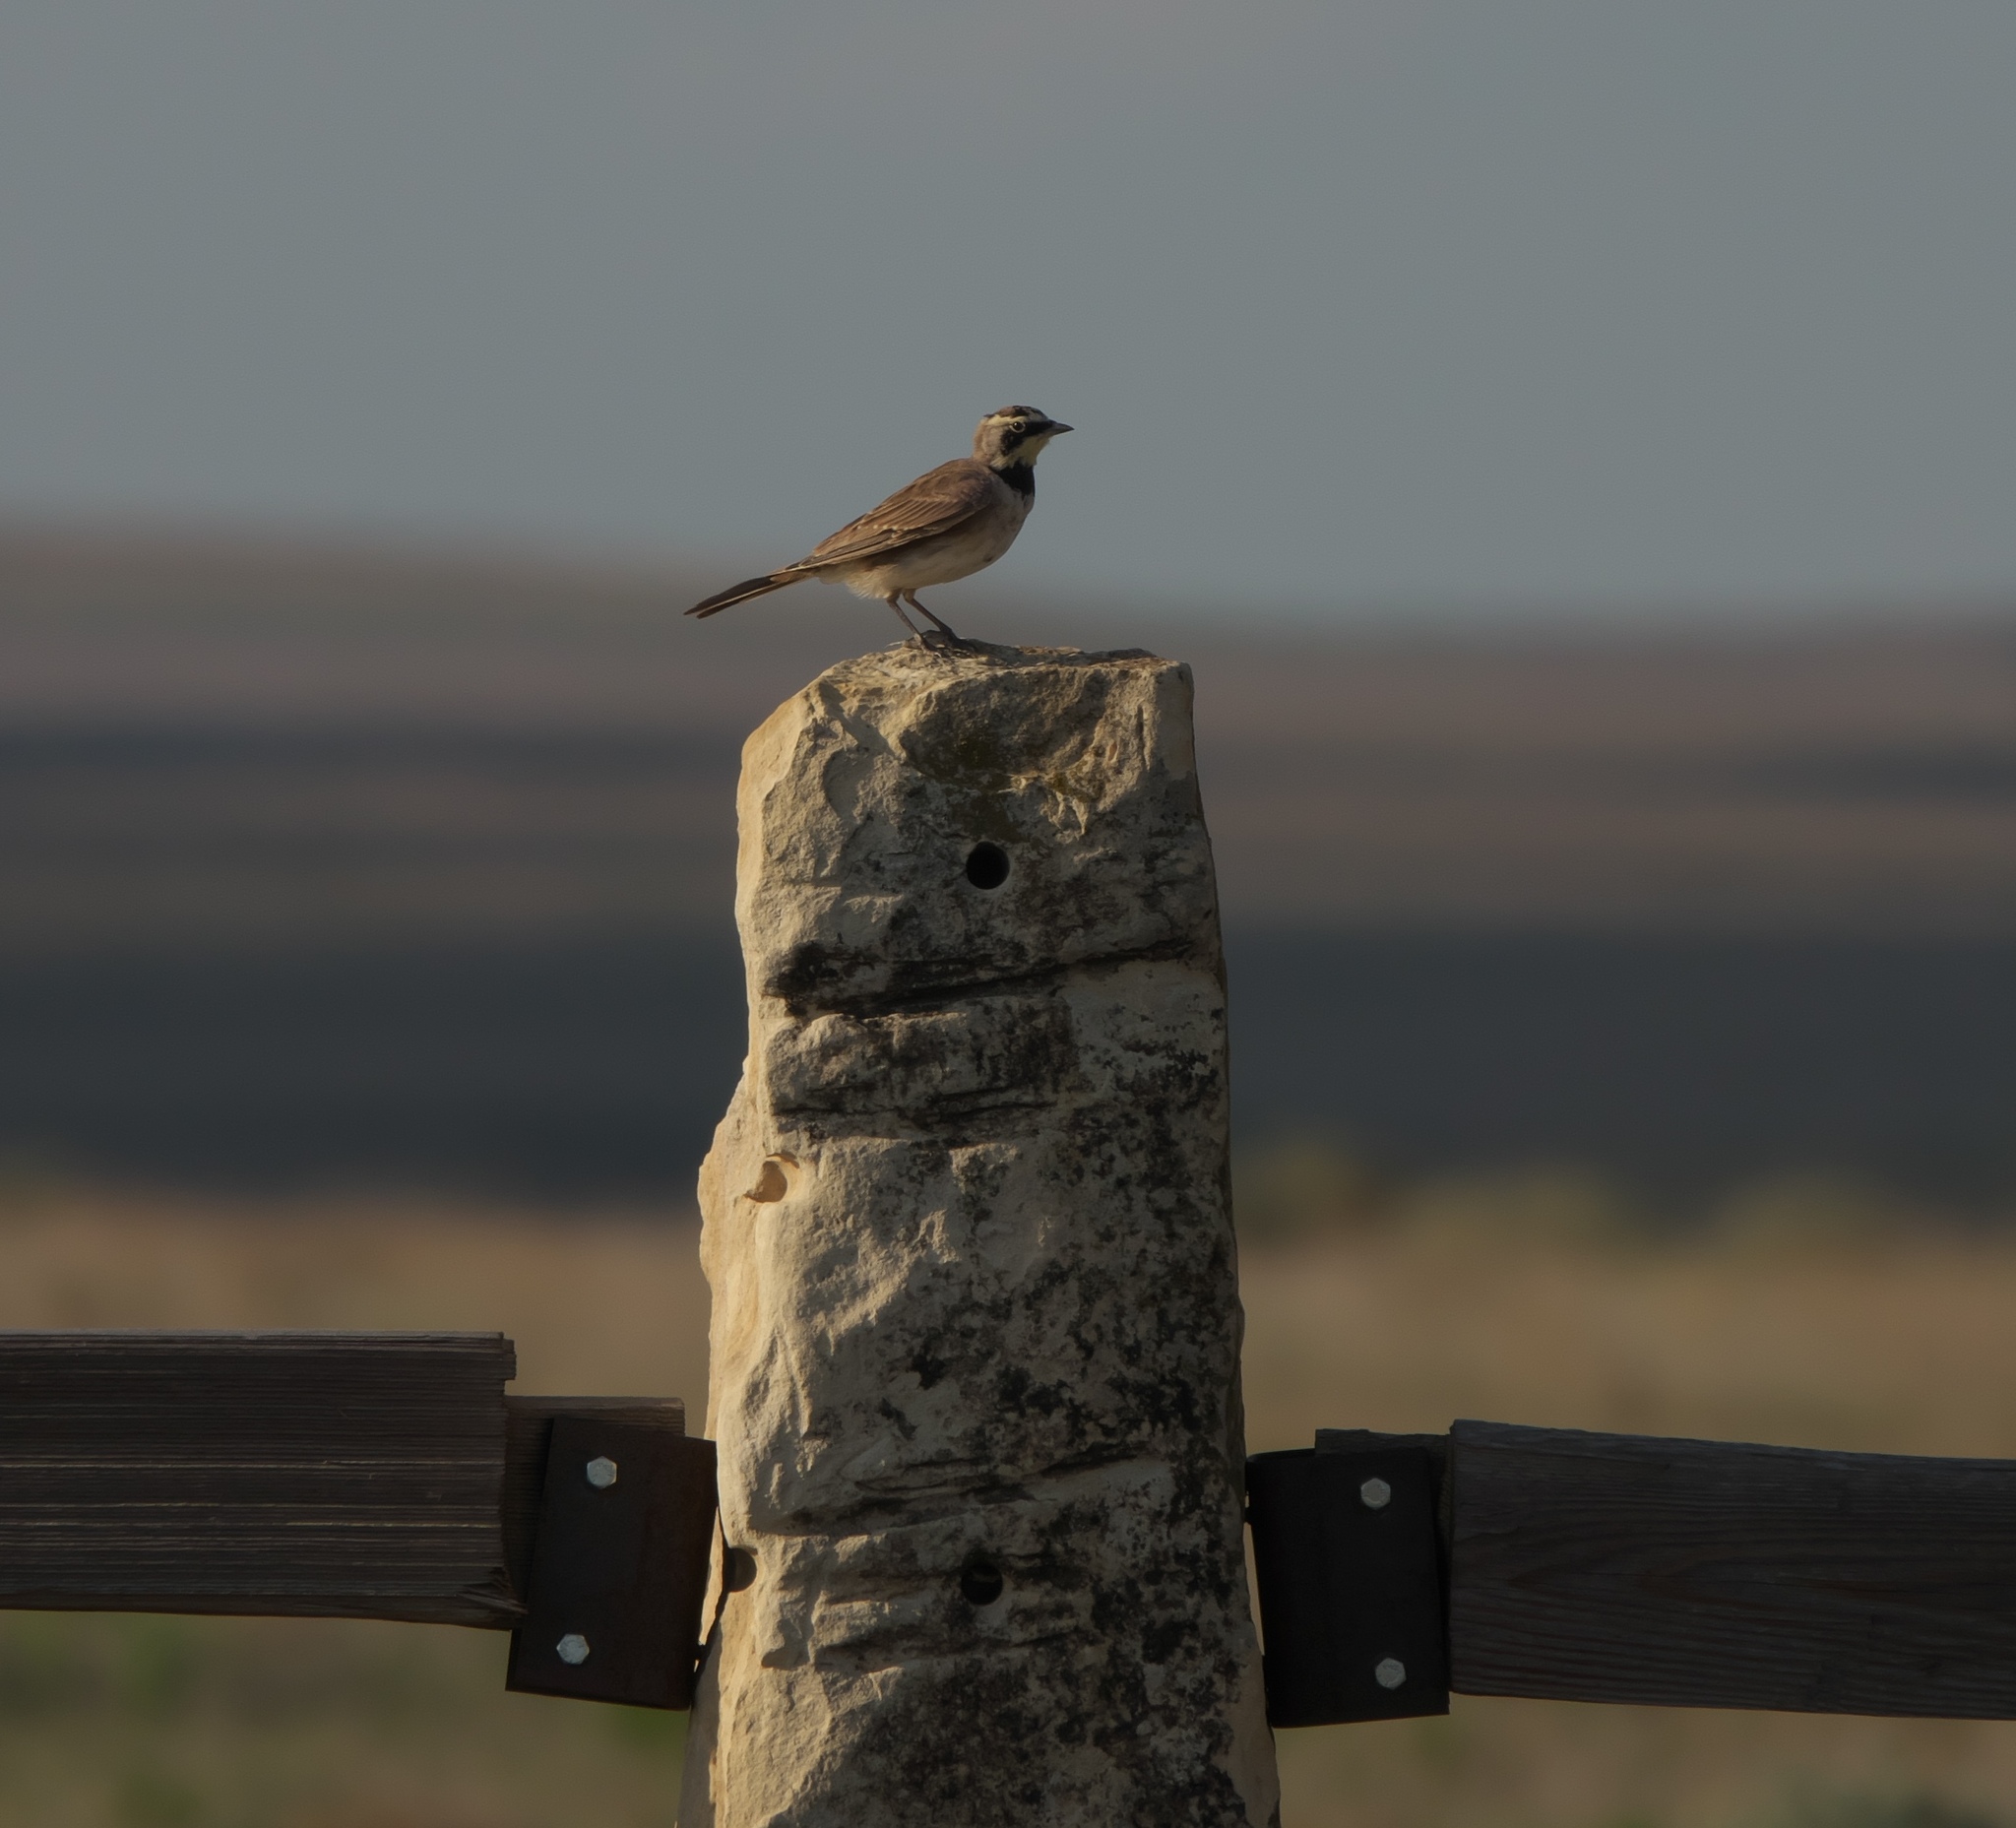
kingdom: Animalia
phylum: Chordata
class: Aves
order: Passeriformes
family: Alaudidae
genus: Eremophila
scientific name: Eremophila alpestris
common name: Horned lark
